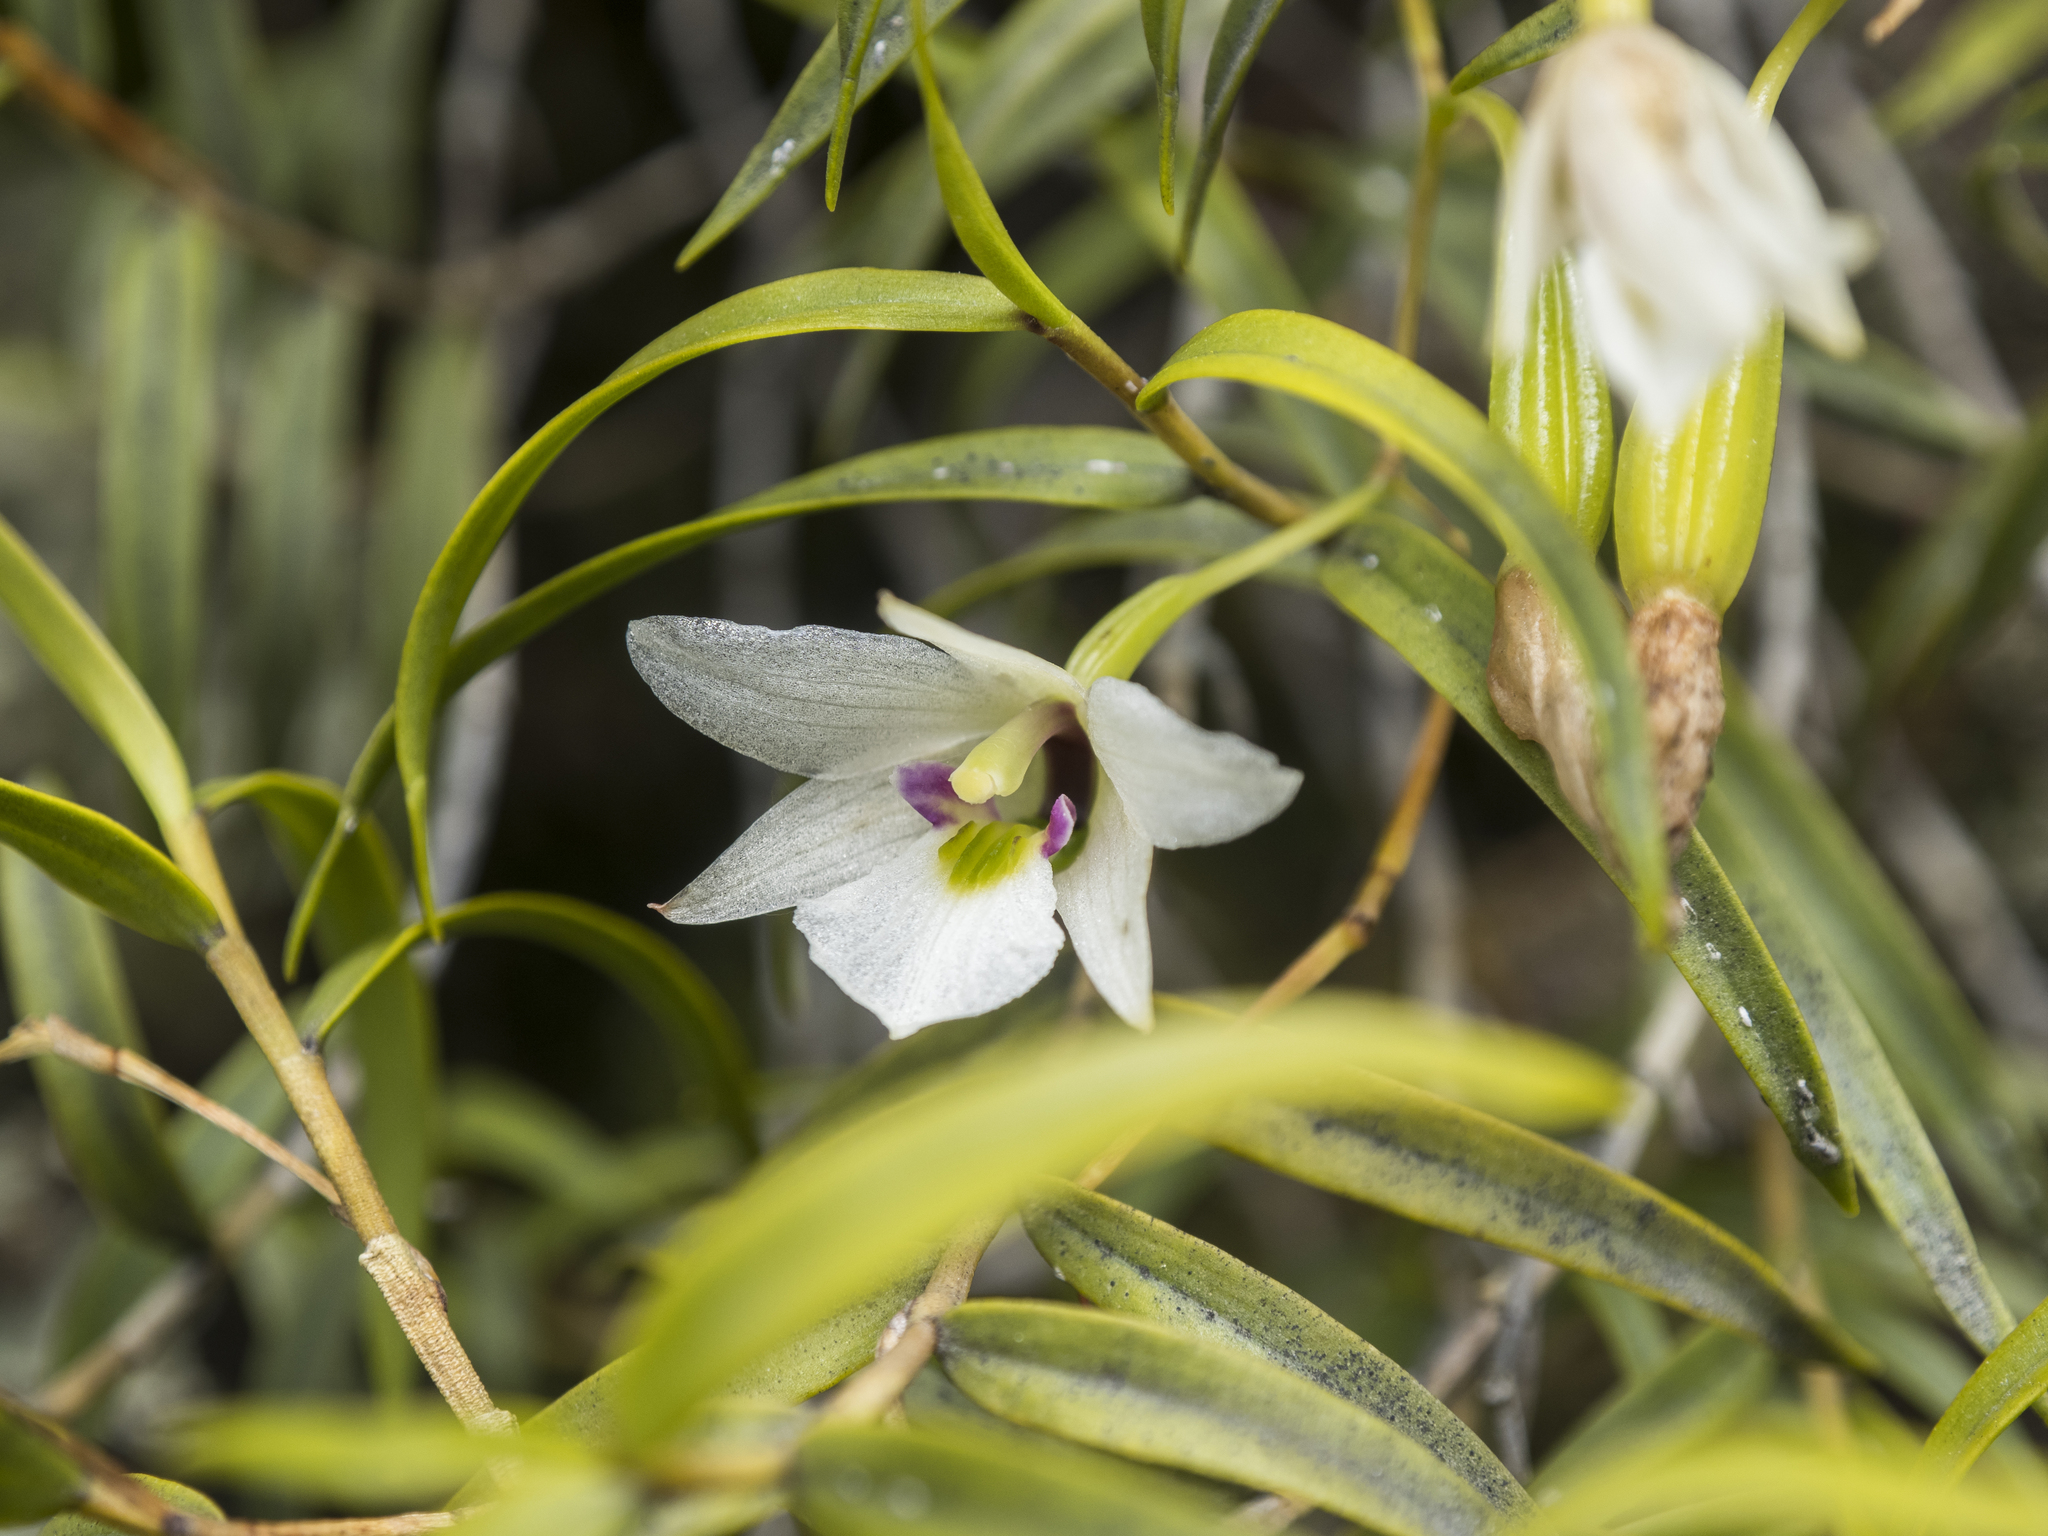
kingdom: Plantae
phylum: Tracheophyta
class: Liliopsida
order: Asparagales
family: Orchidaceae
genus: Dendrobium
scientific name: Dendrobium cunninghamii
